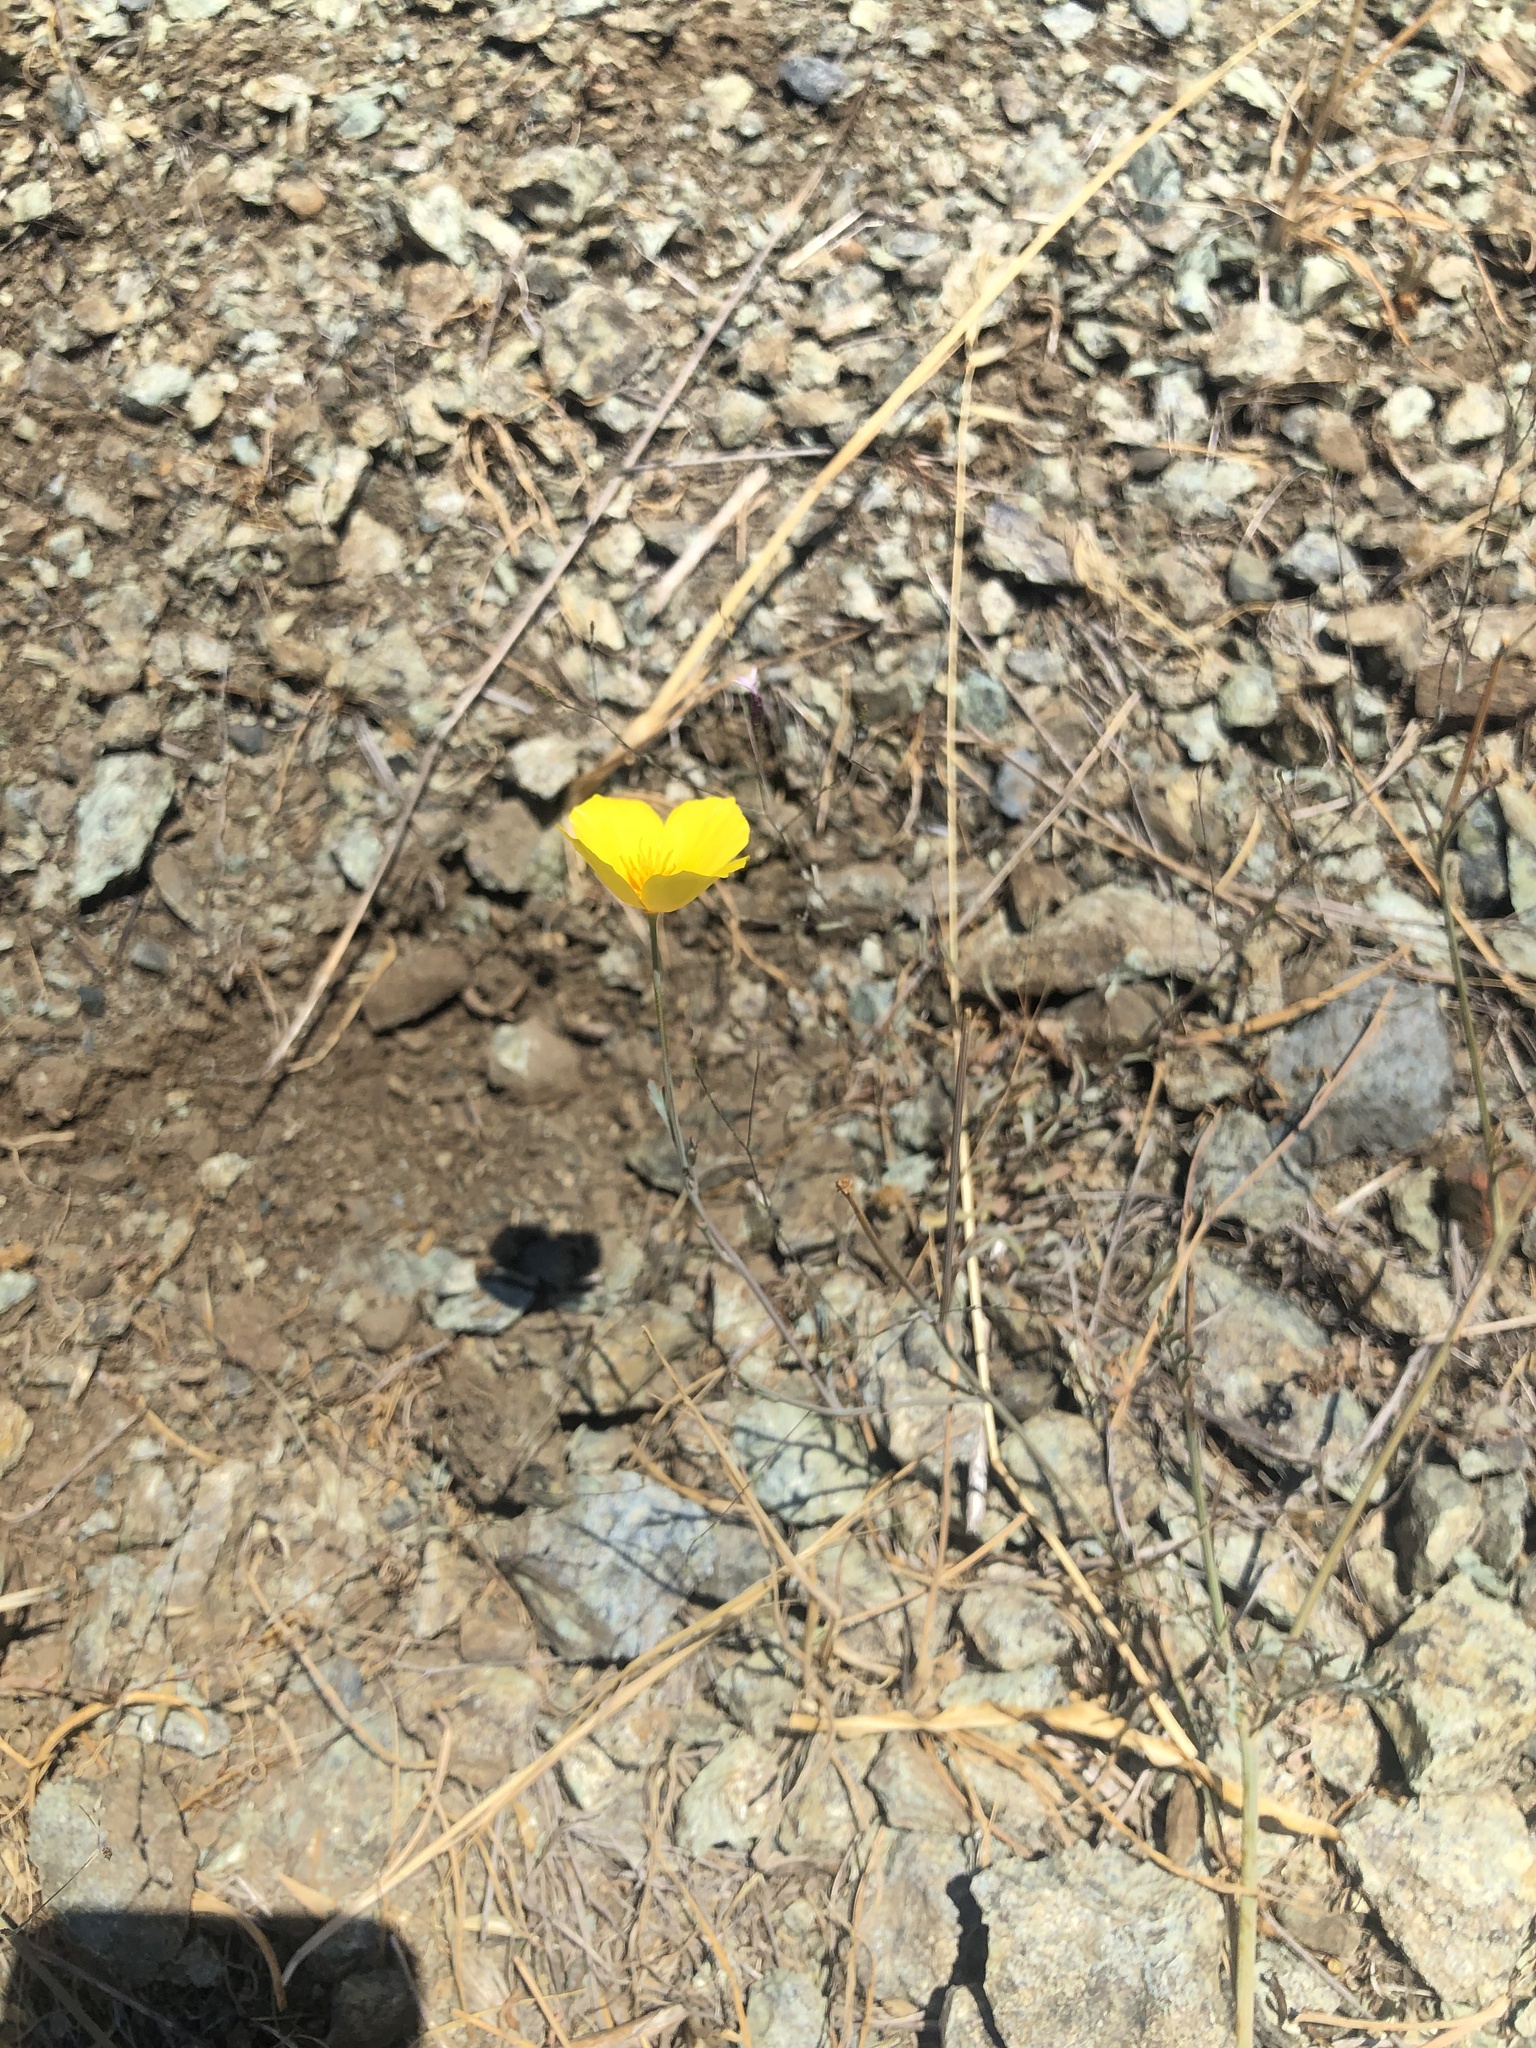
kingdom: Plantae
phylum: Tracheophyta
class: Magnoliopsida
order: Ranunculales
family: Papaveraceae
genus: Eschscholzia
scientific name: Eschscholzia californica
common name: California poppy
